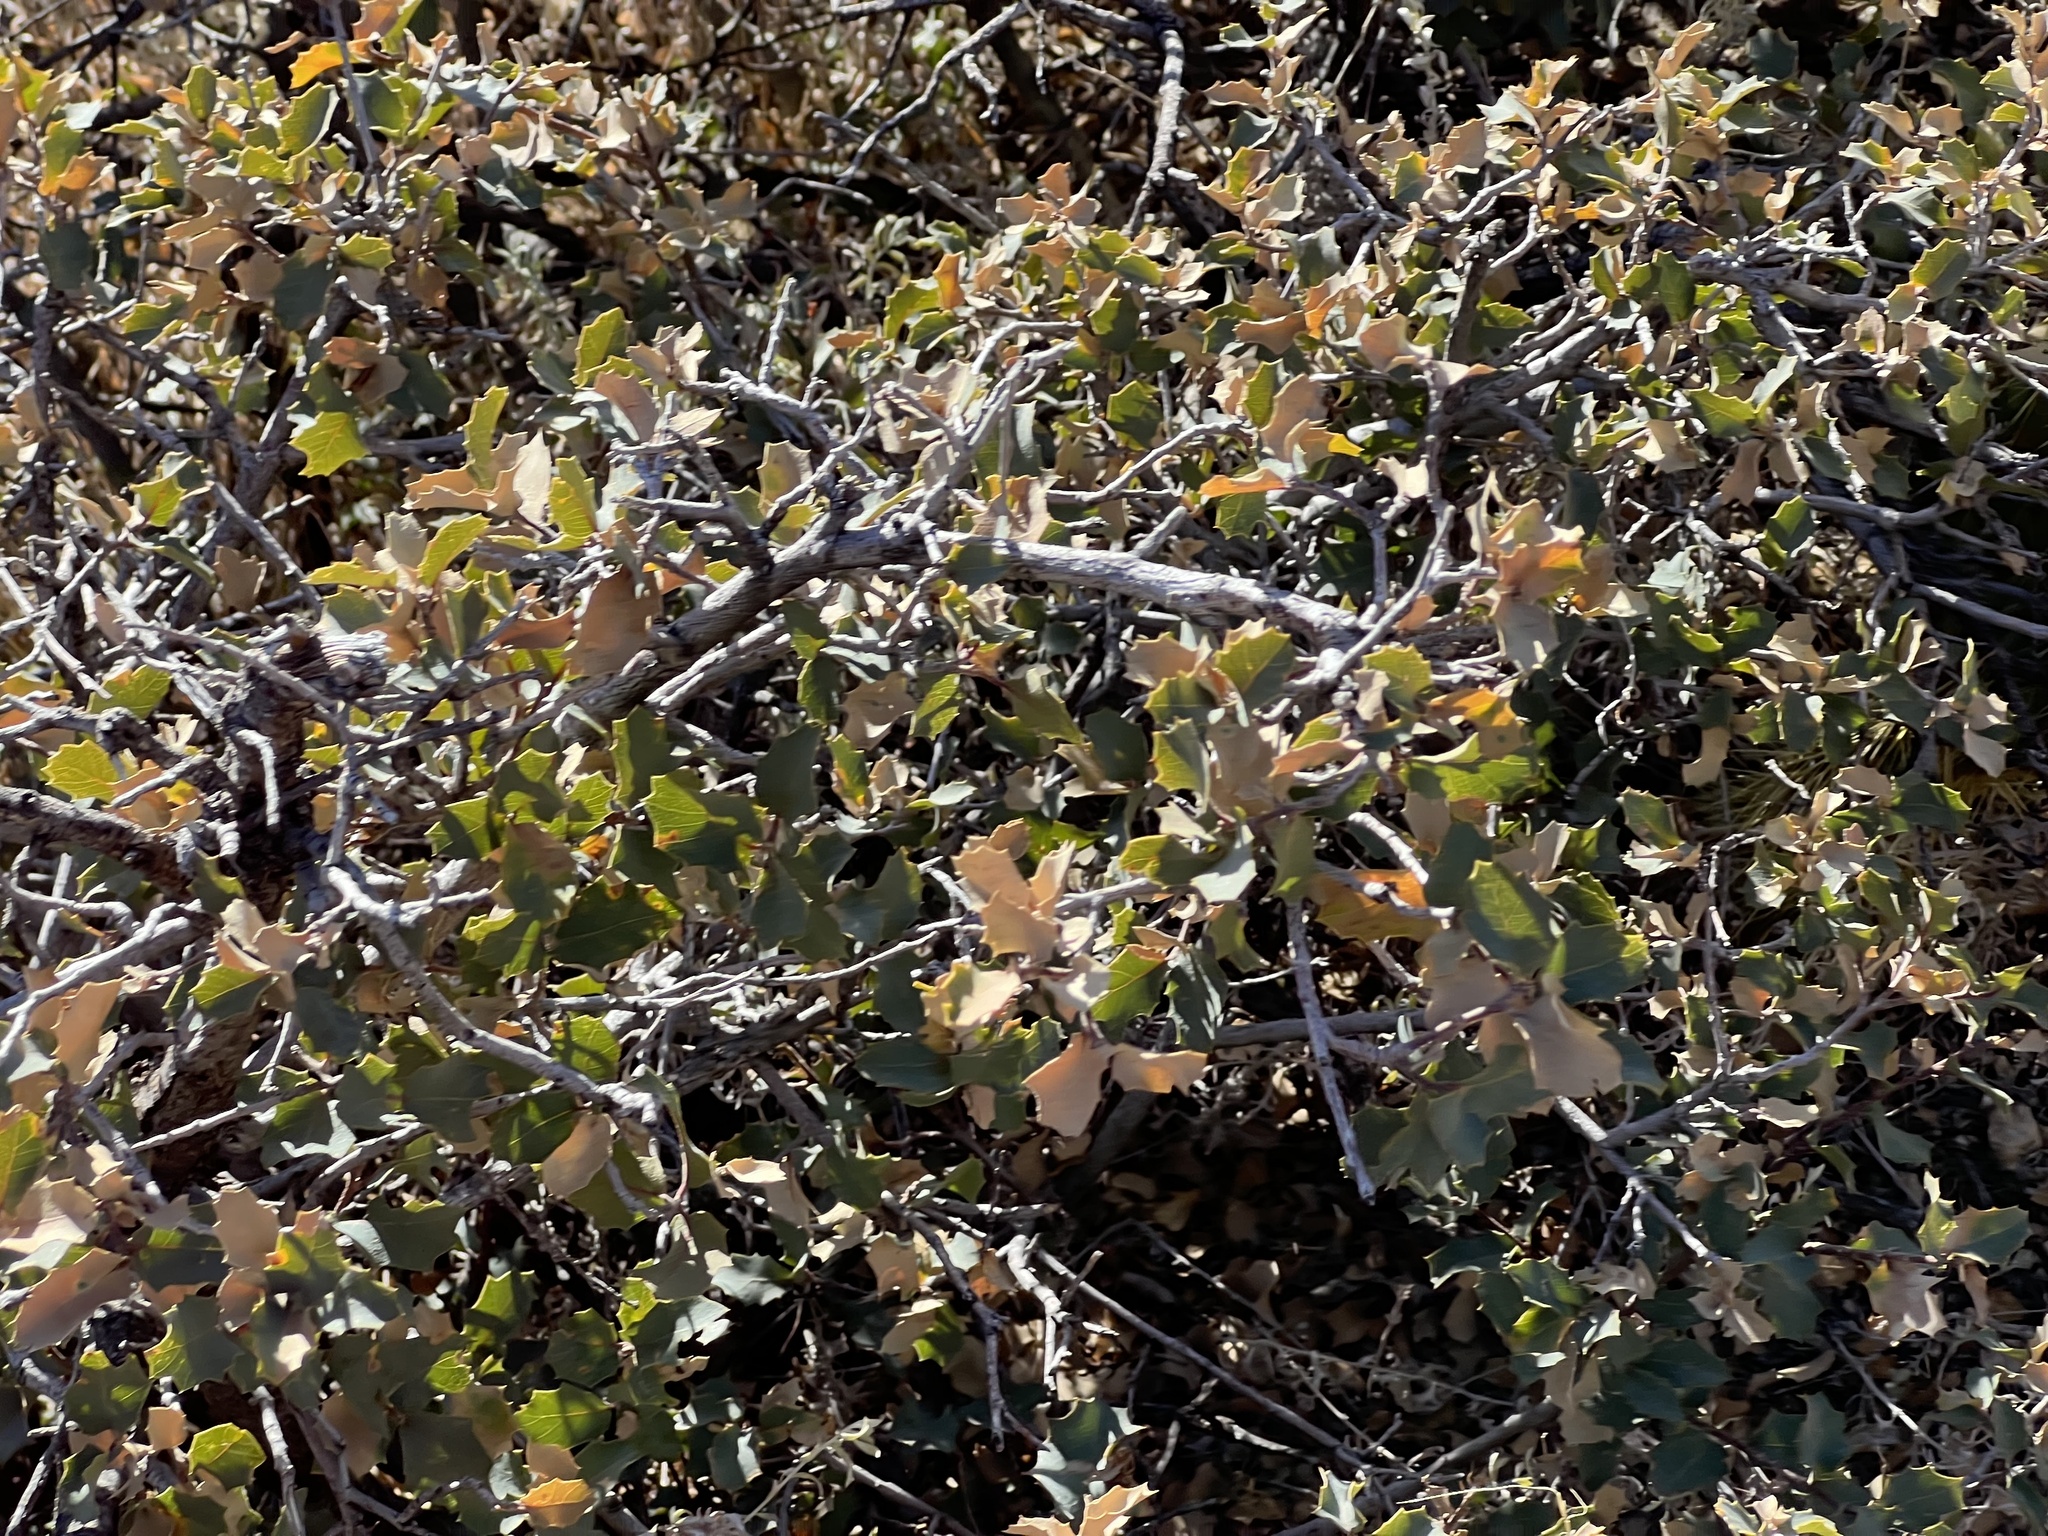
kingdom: Plantae
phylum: Tracheophyta
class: Magnoliopsida
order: Fagales
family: Fagaceae
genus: Quercus
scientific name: Quercus turbinella
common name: Sonoran scrub oak
